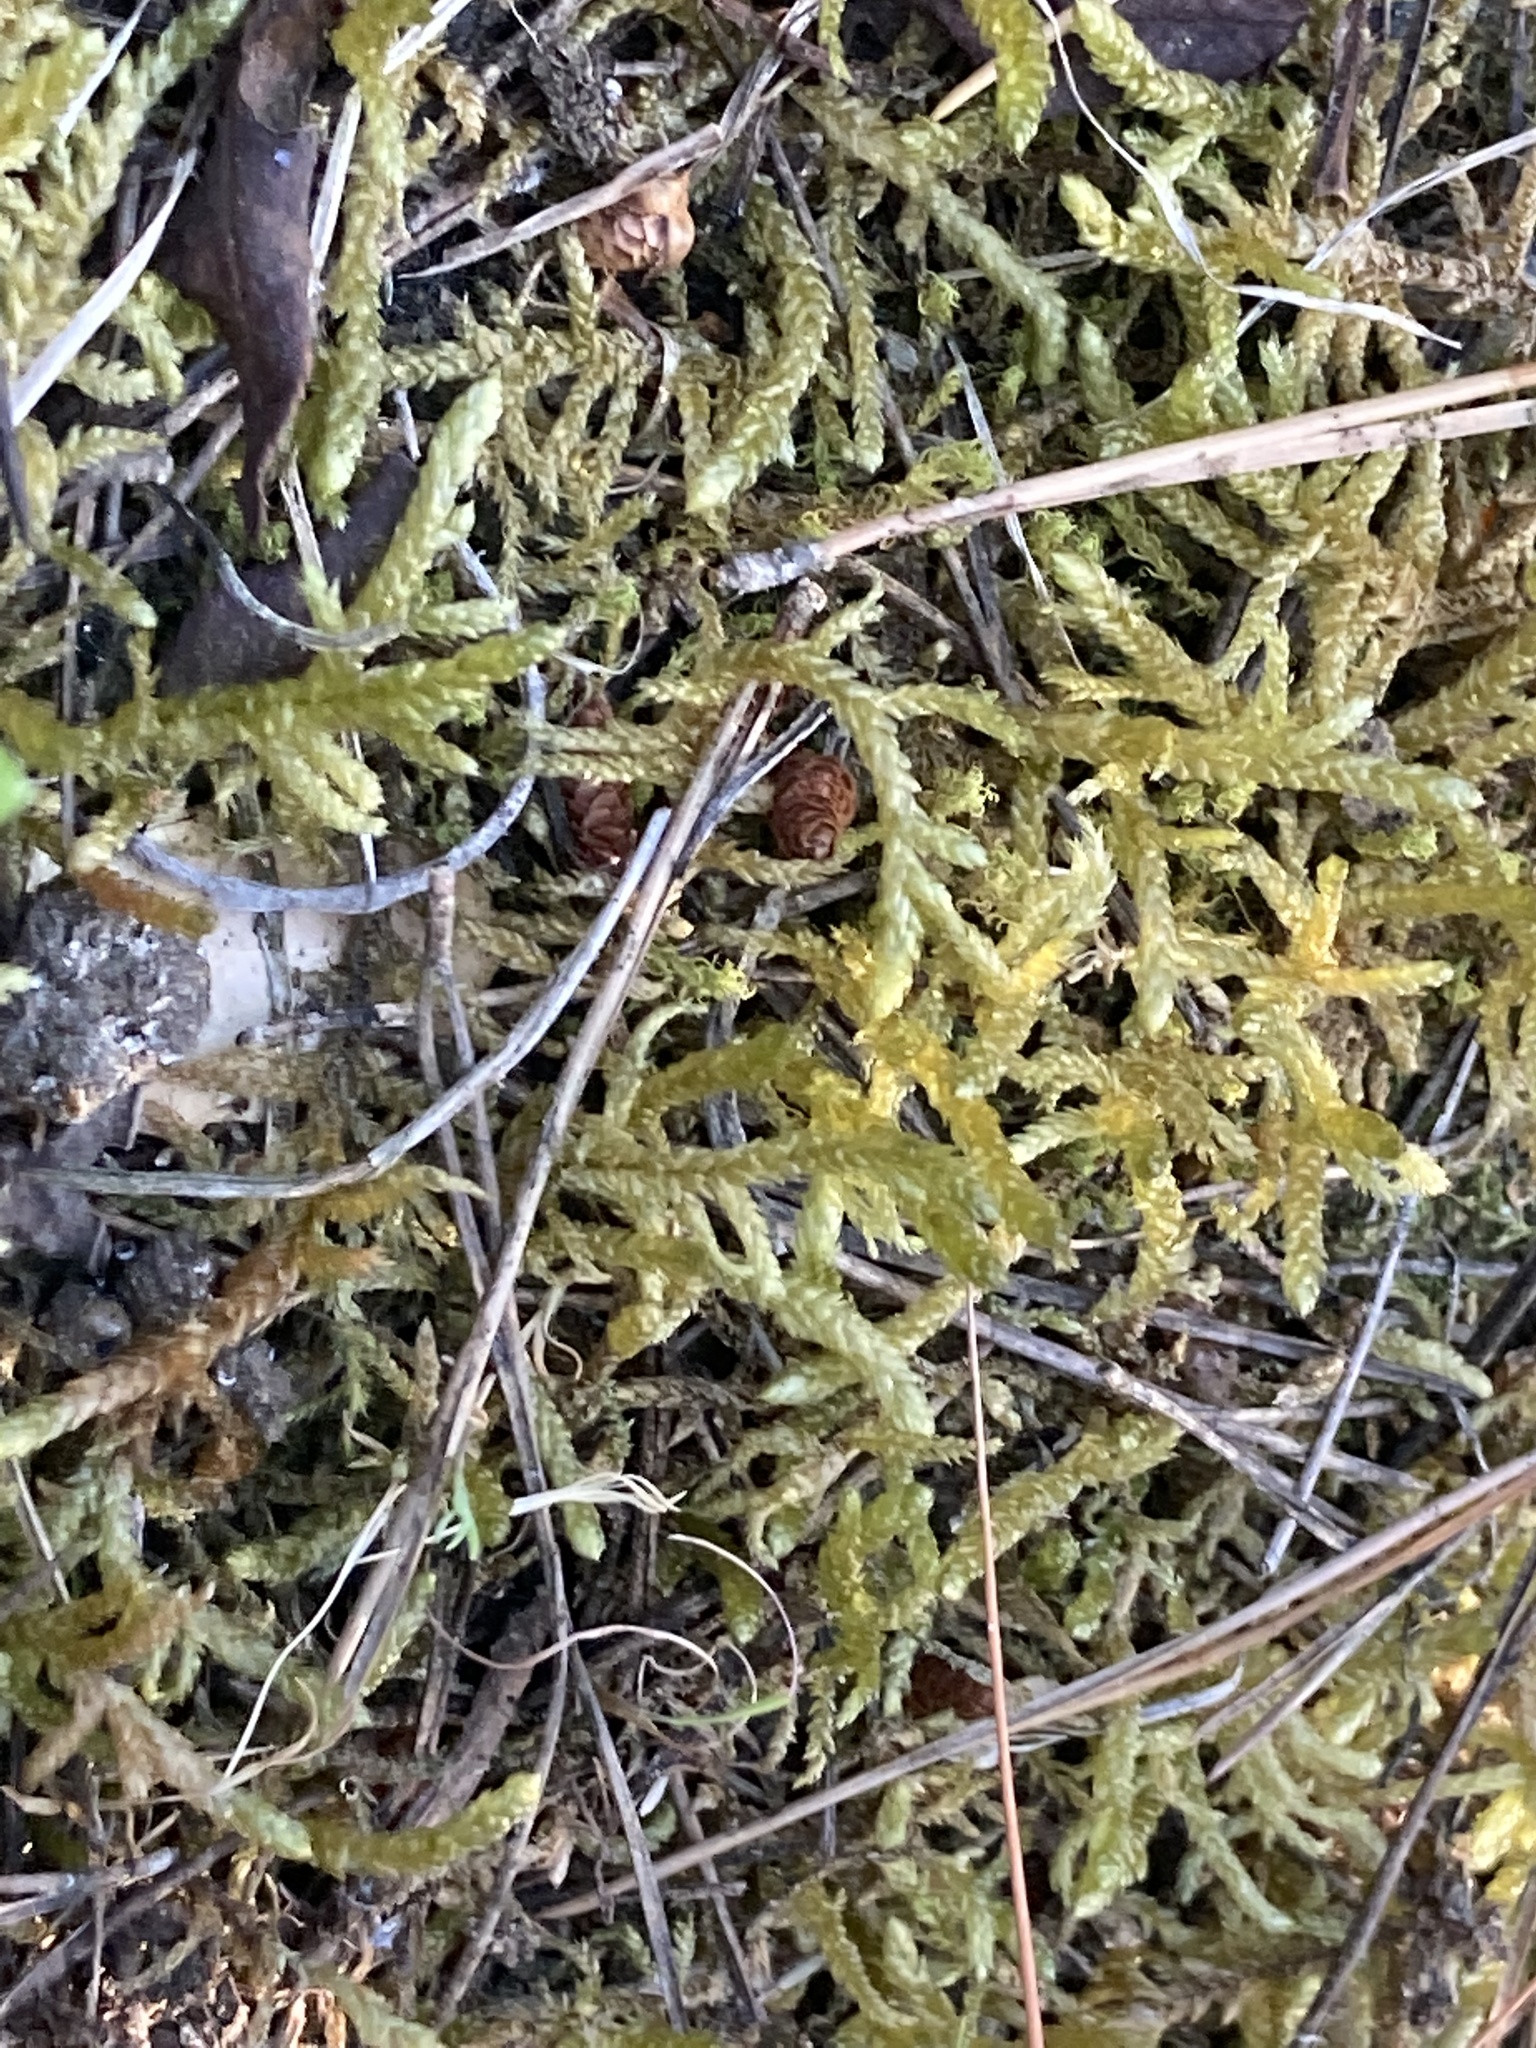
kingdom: Plantae
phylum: Bryophyta
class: Bryopsida
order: Hypnales
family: Brachytheciaceae
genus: Pseudoscleropodium
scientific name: Pseudoscleropodium purum
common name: Neat feather-moss
